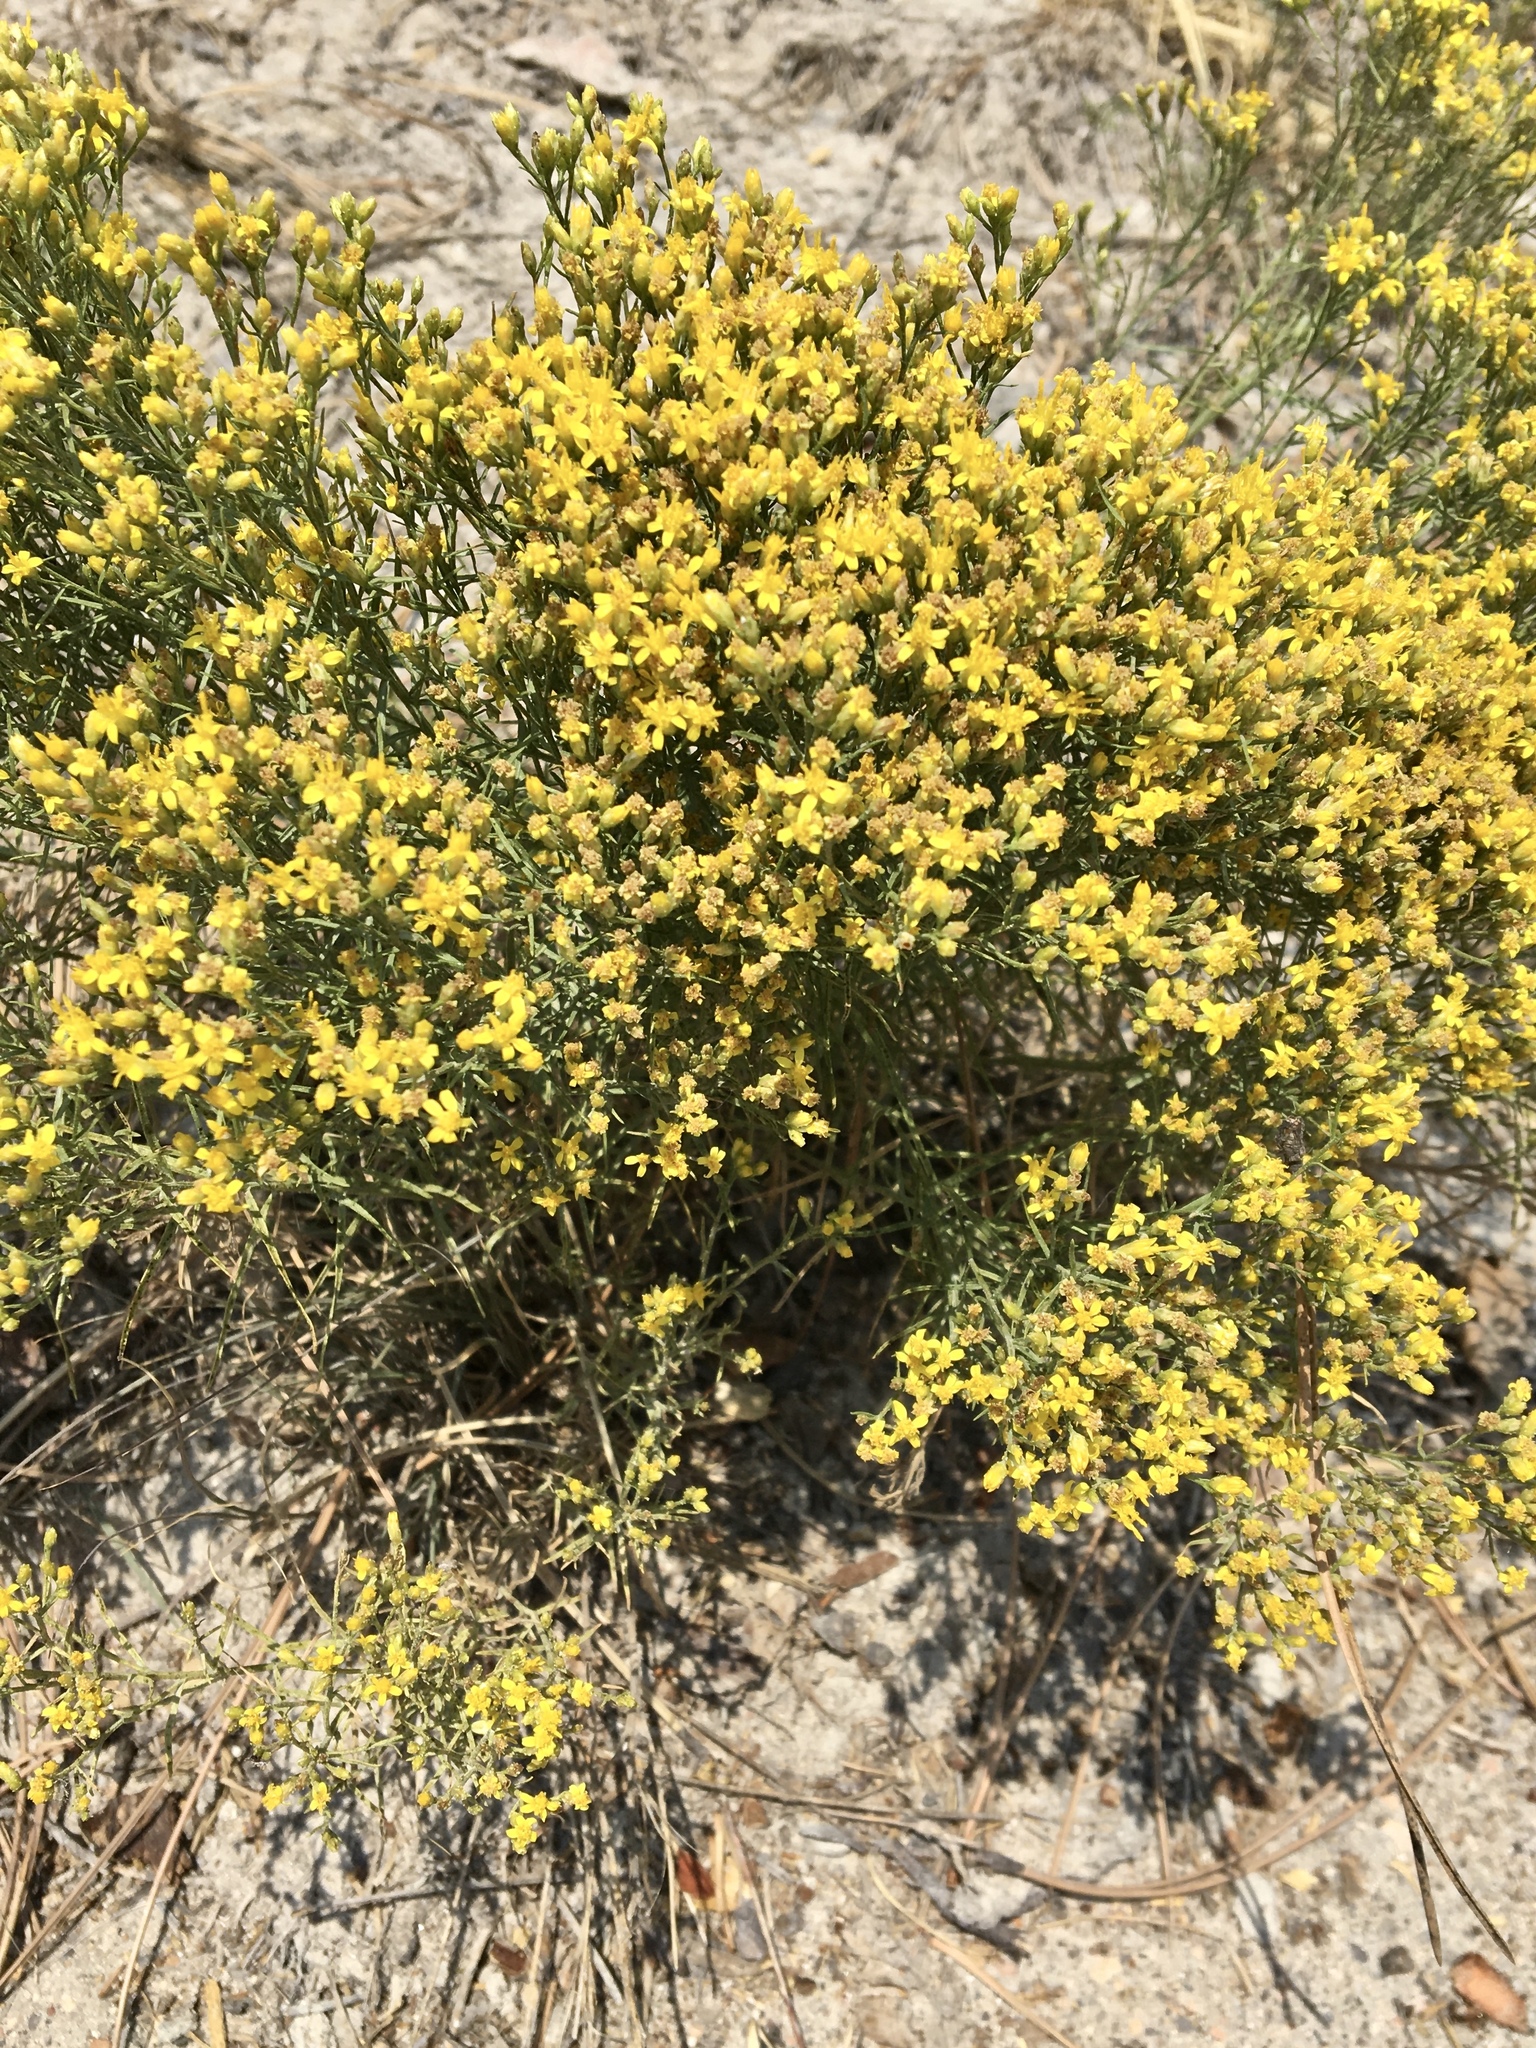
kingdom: Plantae
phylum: Tracheophyta
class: Magnoliopsida
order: Asterales
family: Asteraceae
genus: Gutierrezia
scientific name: Gutierrezia sarothrae
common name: Broom snakeweed
